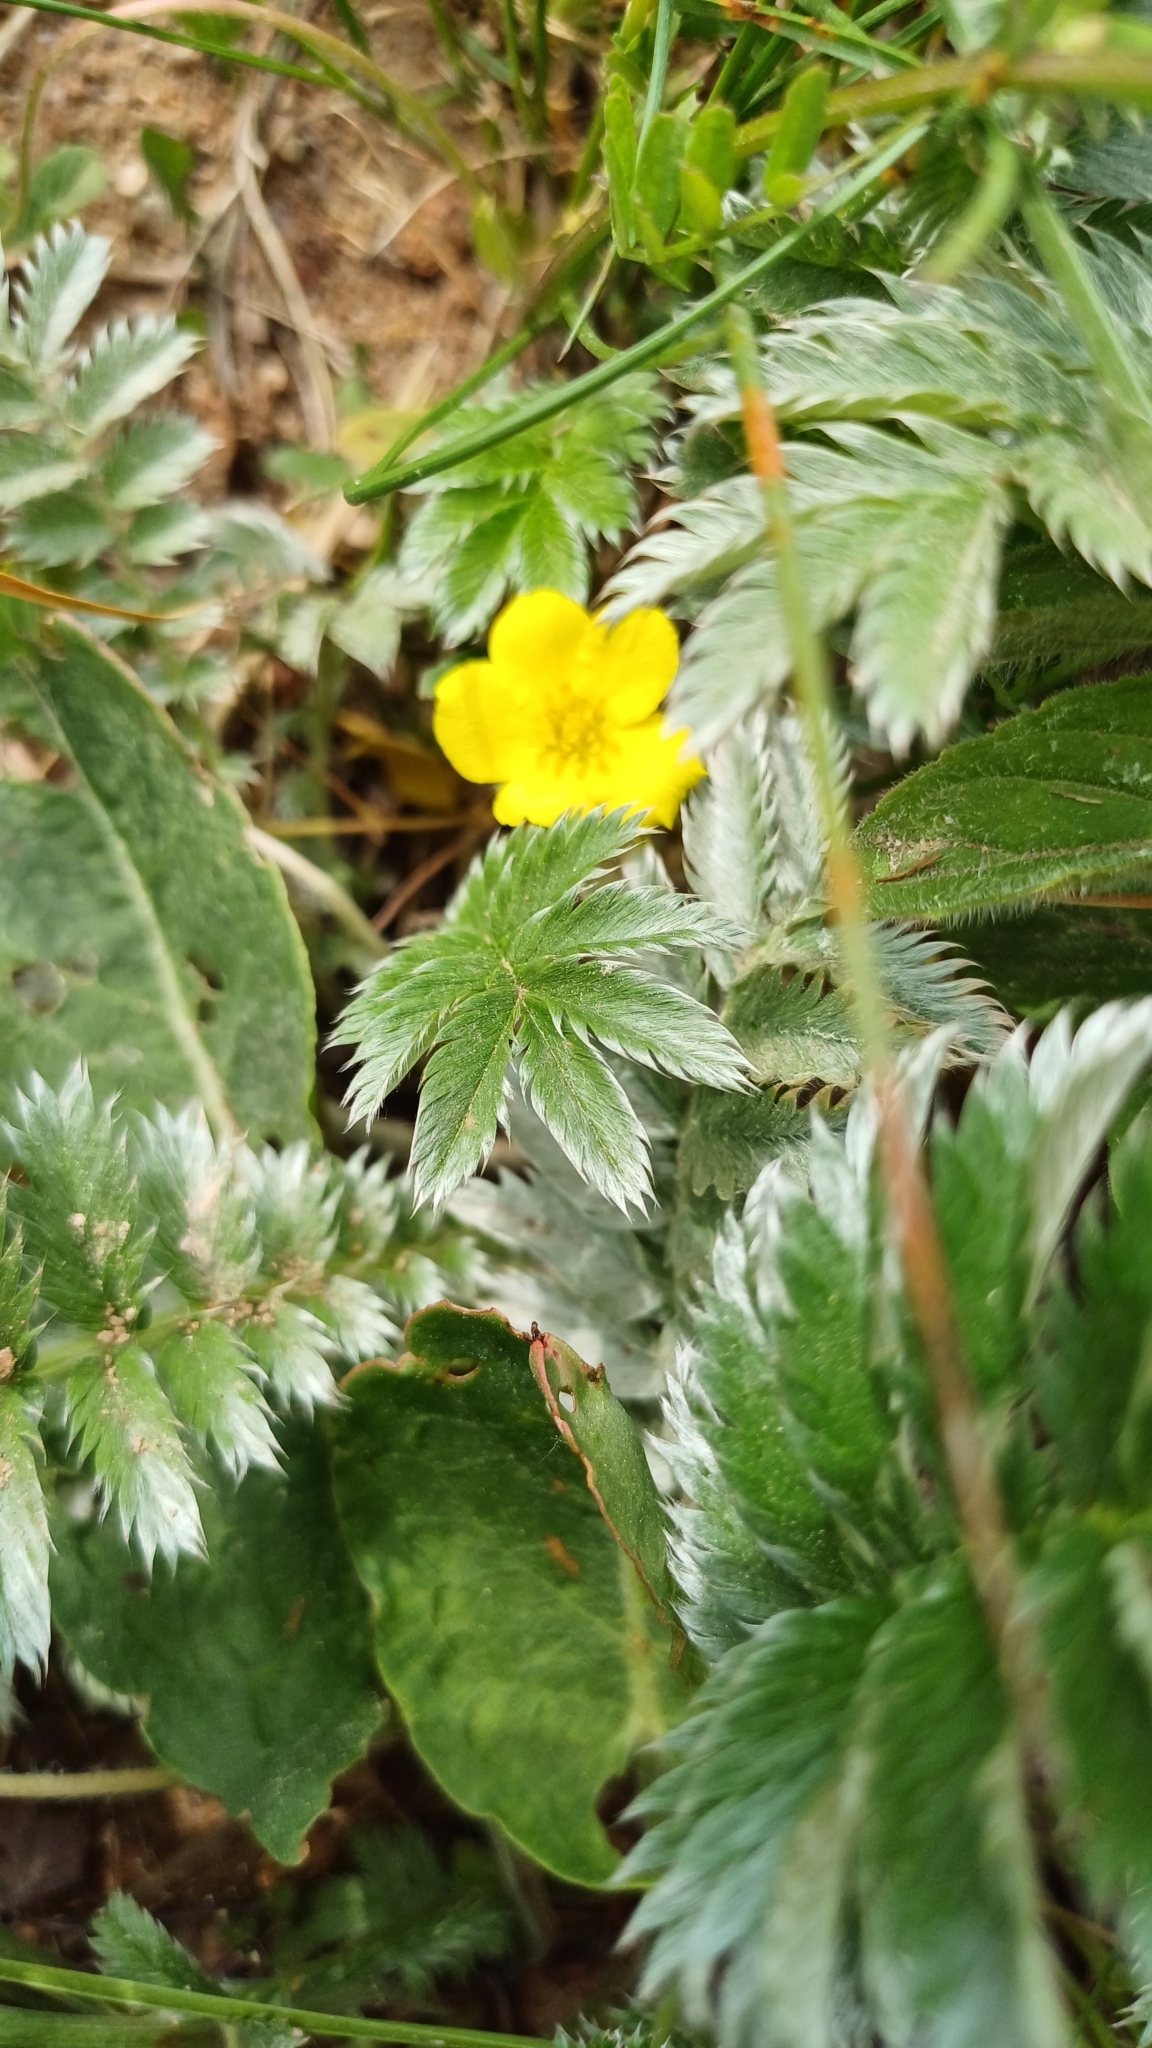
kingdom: Plantae
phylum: Tracheophyta
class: Magnoliopsida
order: Rosales
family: Rosaceae
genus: Argentina
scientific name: Argentina anserina
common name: Common silverweed
